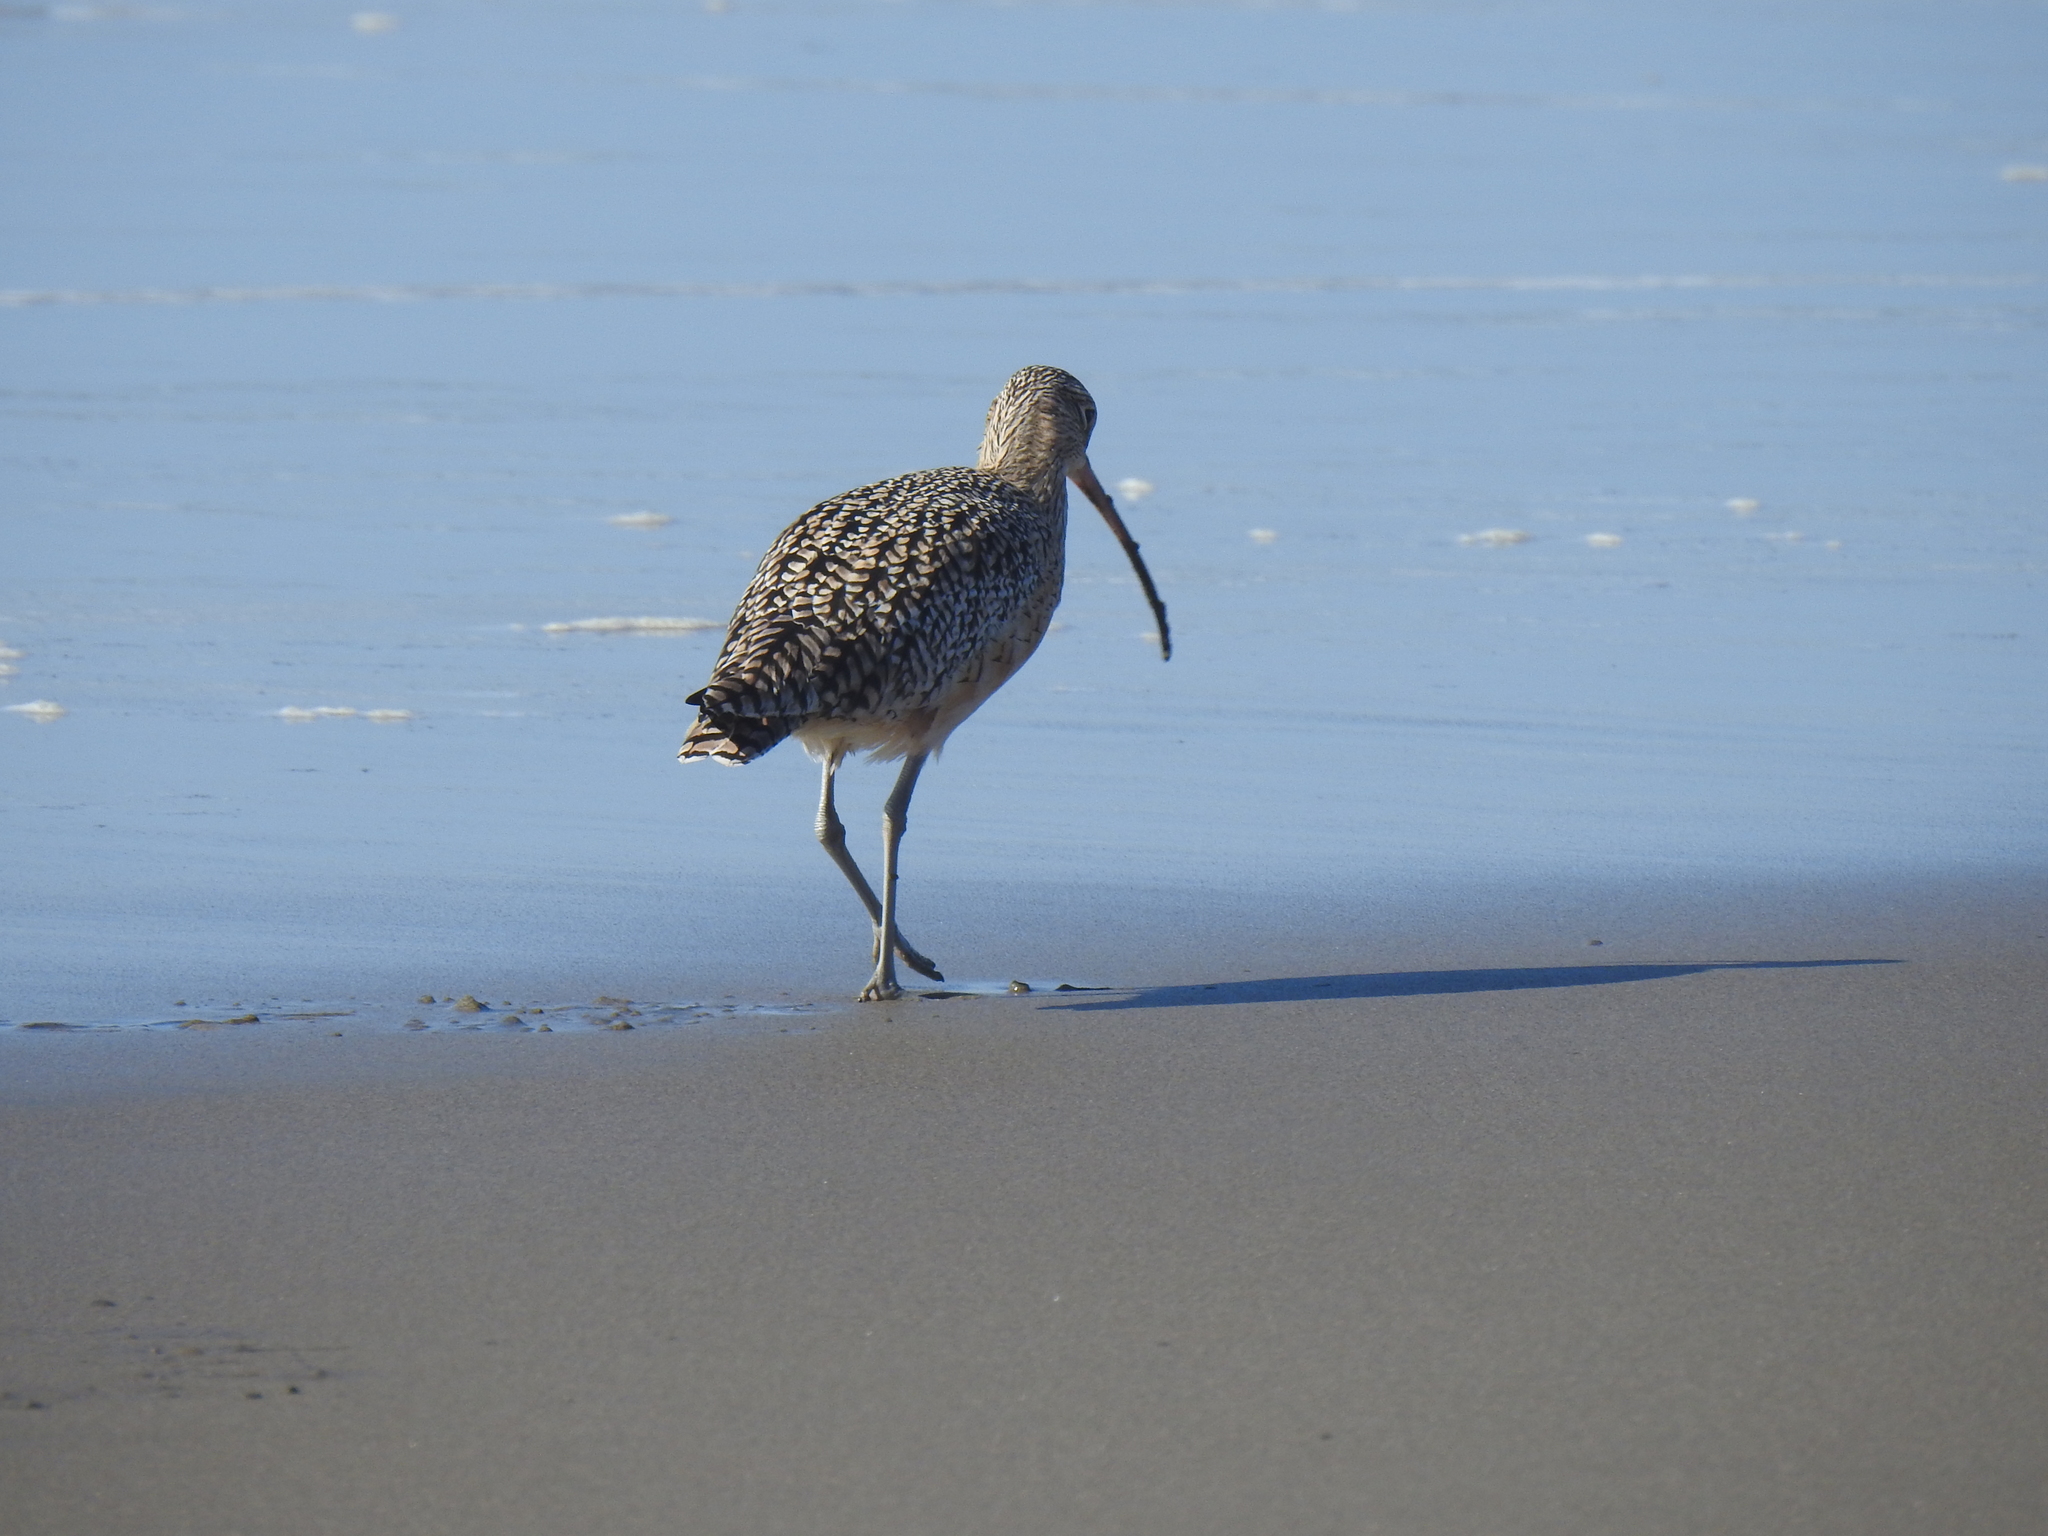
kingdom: Animalia
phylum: Chordata
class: Aves
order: Charadriiformes
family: Scolopacidae
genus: Numenius
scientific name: Numenius americanus
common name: Long-billed curlew
